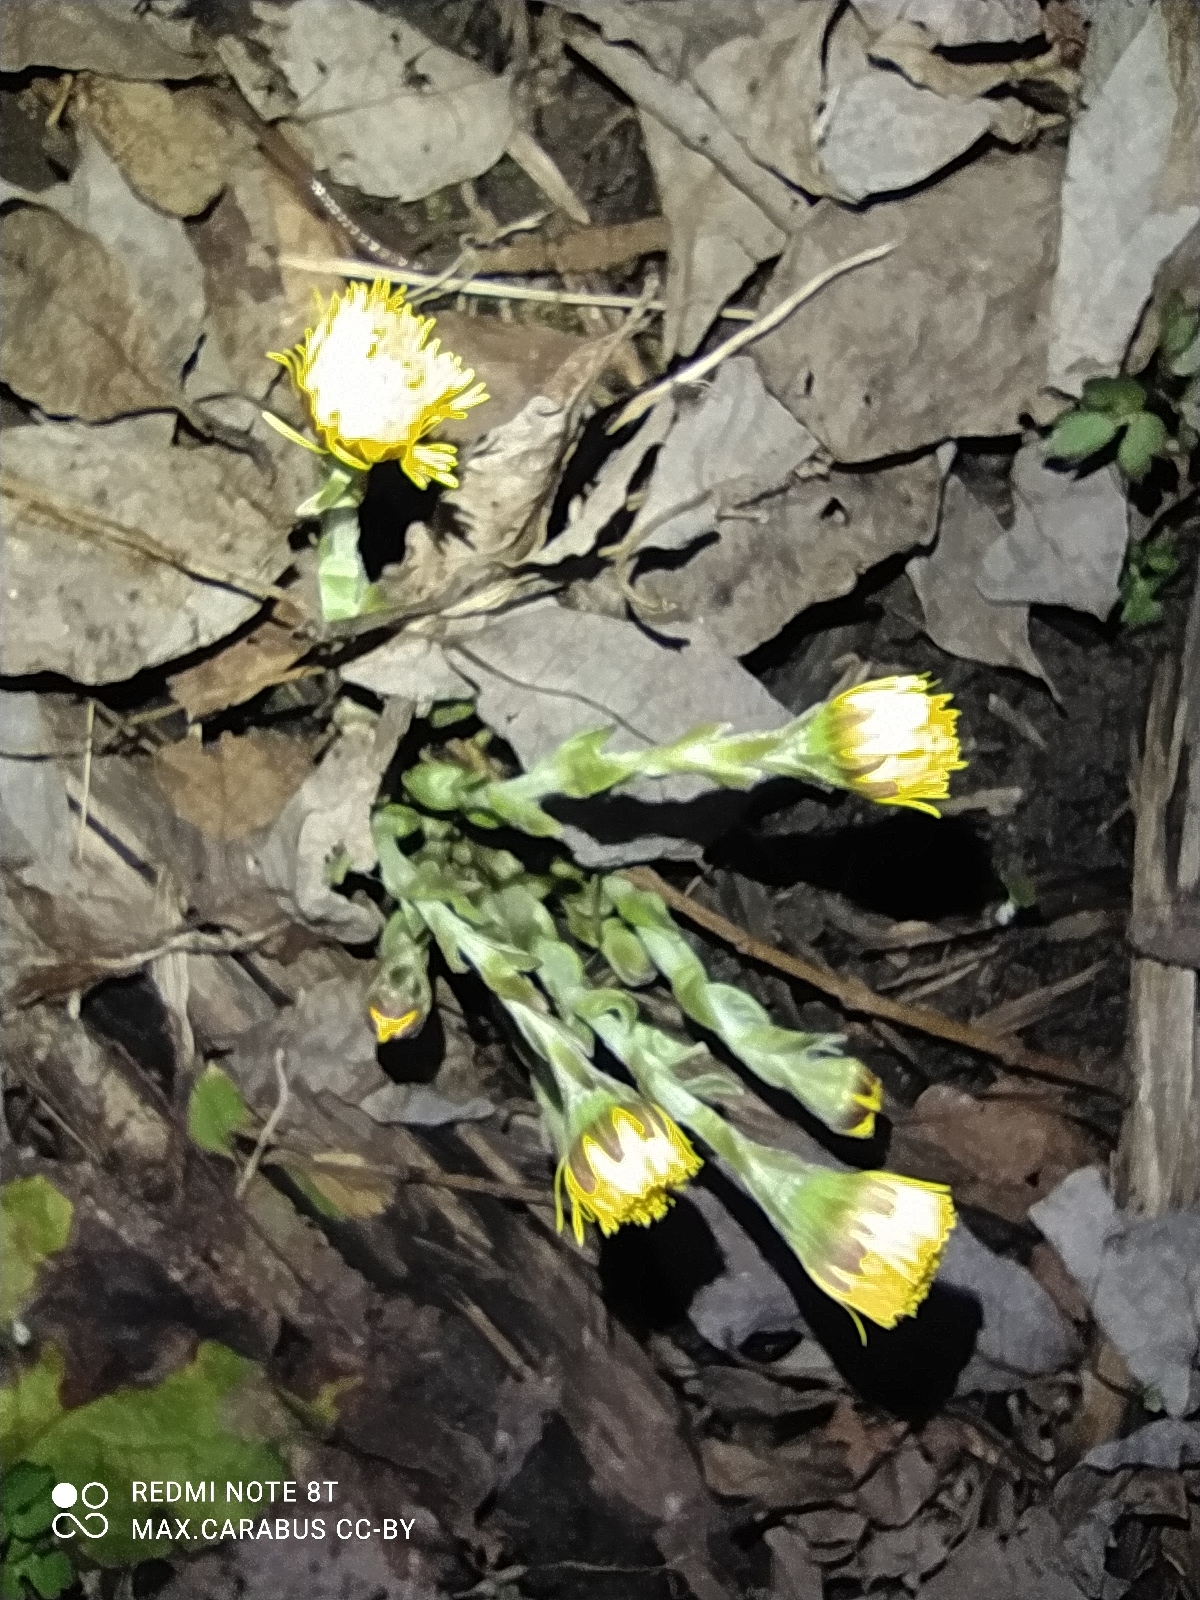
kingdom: Plantae
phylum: Tracheophyta
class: Magnoliopsida
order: Asterales
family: Asteraceae
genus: Tussilago
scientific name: Tussilago farfara
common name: Coltsfoot
